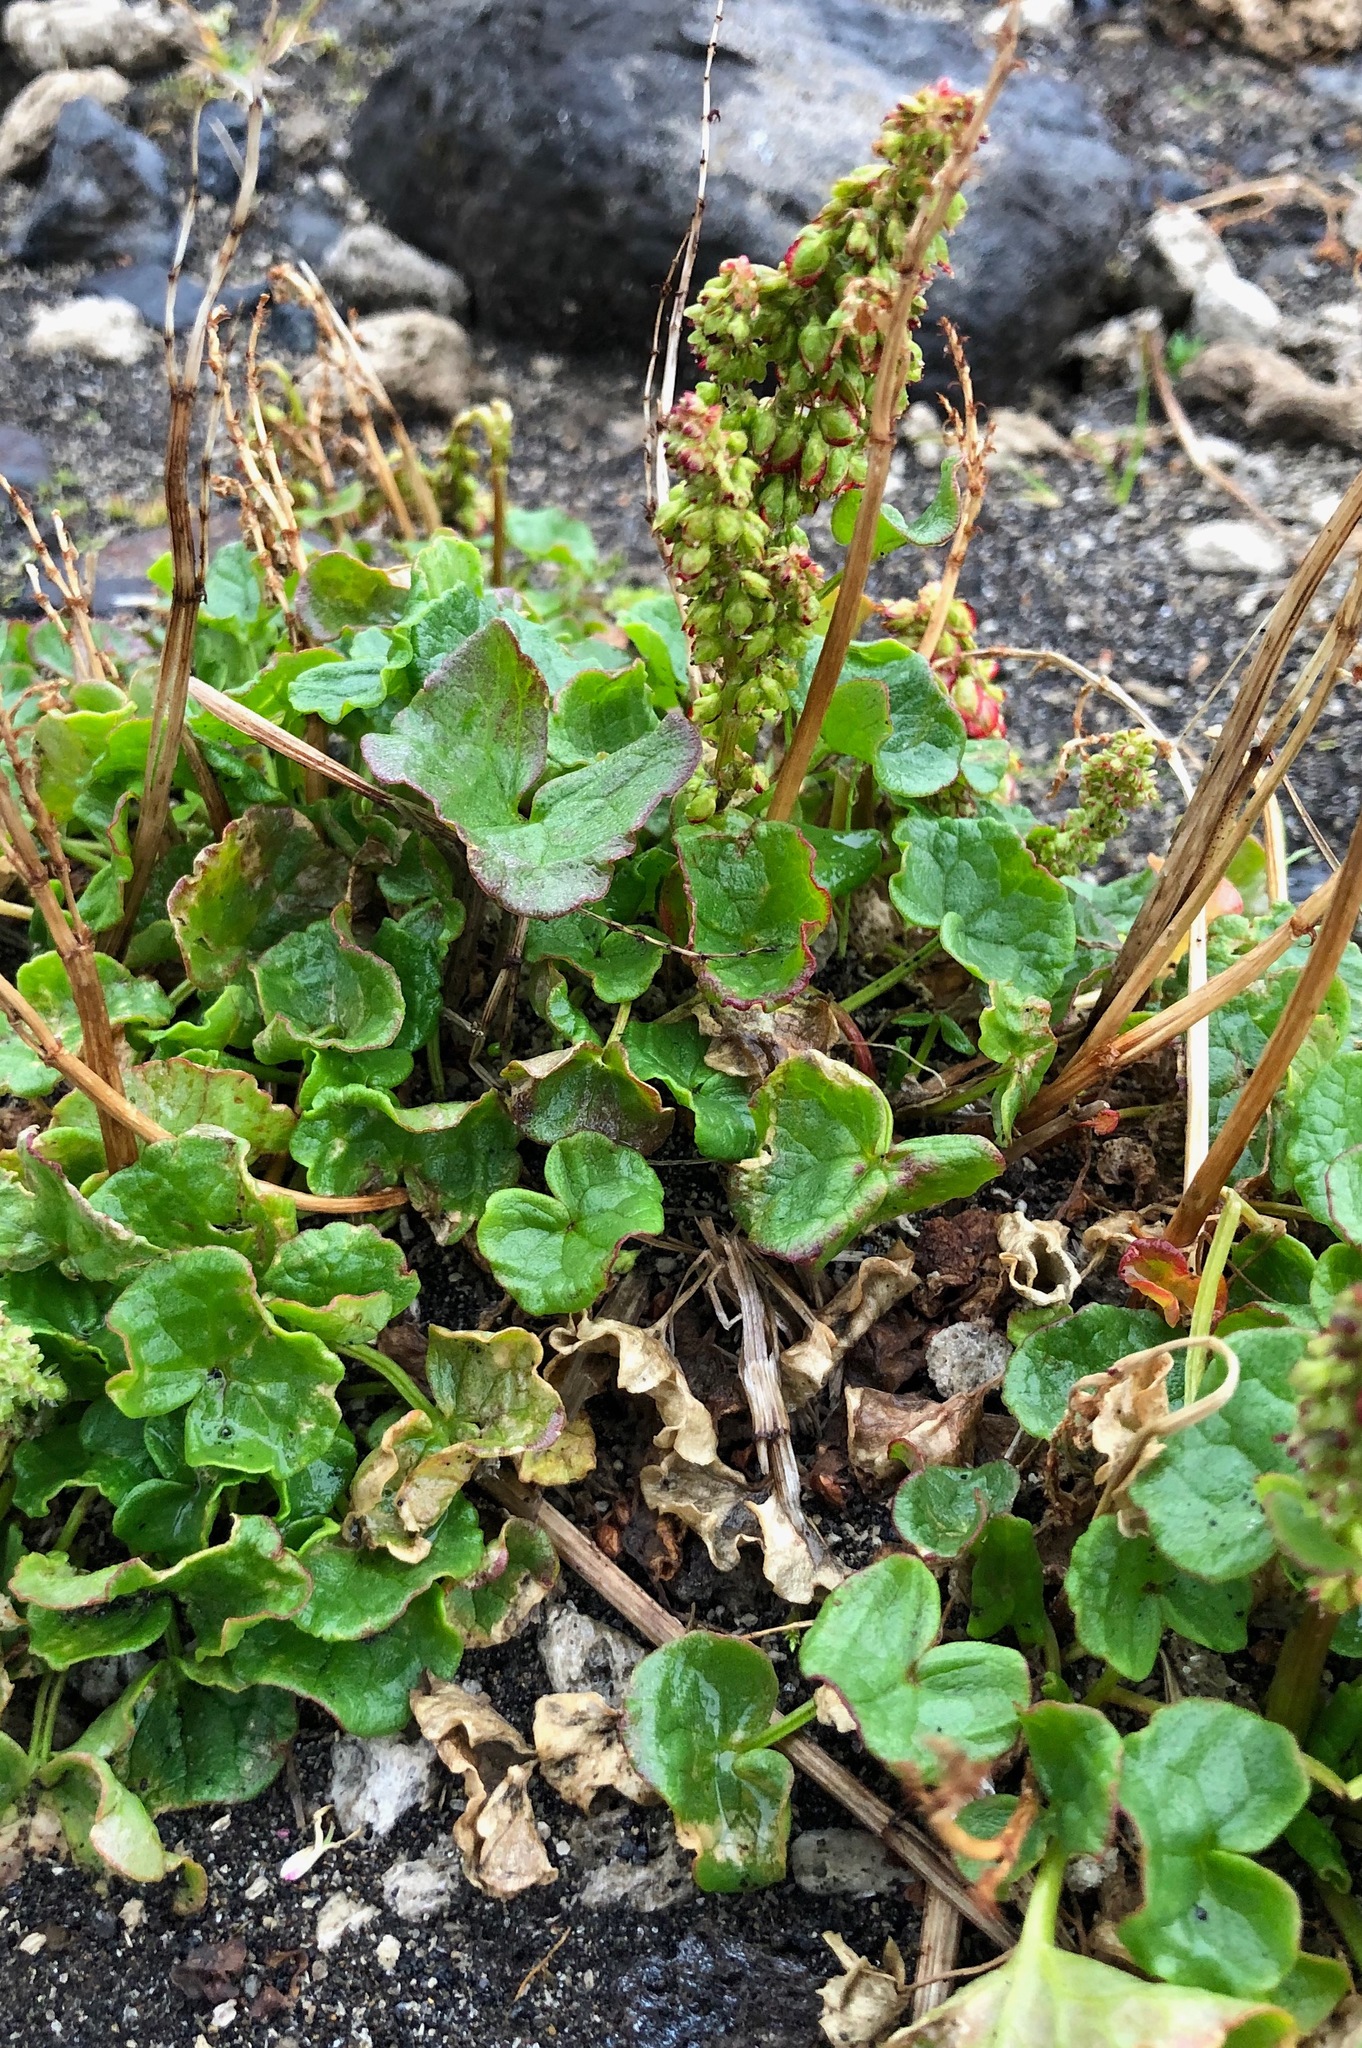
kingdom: Plantae
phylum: Tracheophyta
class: Magnoliopsida
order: Caryophyllales
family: Polygonaceae
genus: Oxyria
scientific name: Oxyria digyna
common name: Alpine mountain-sorrel
